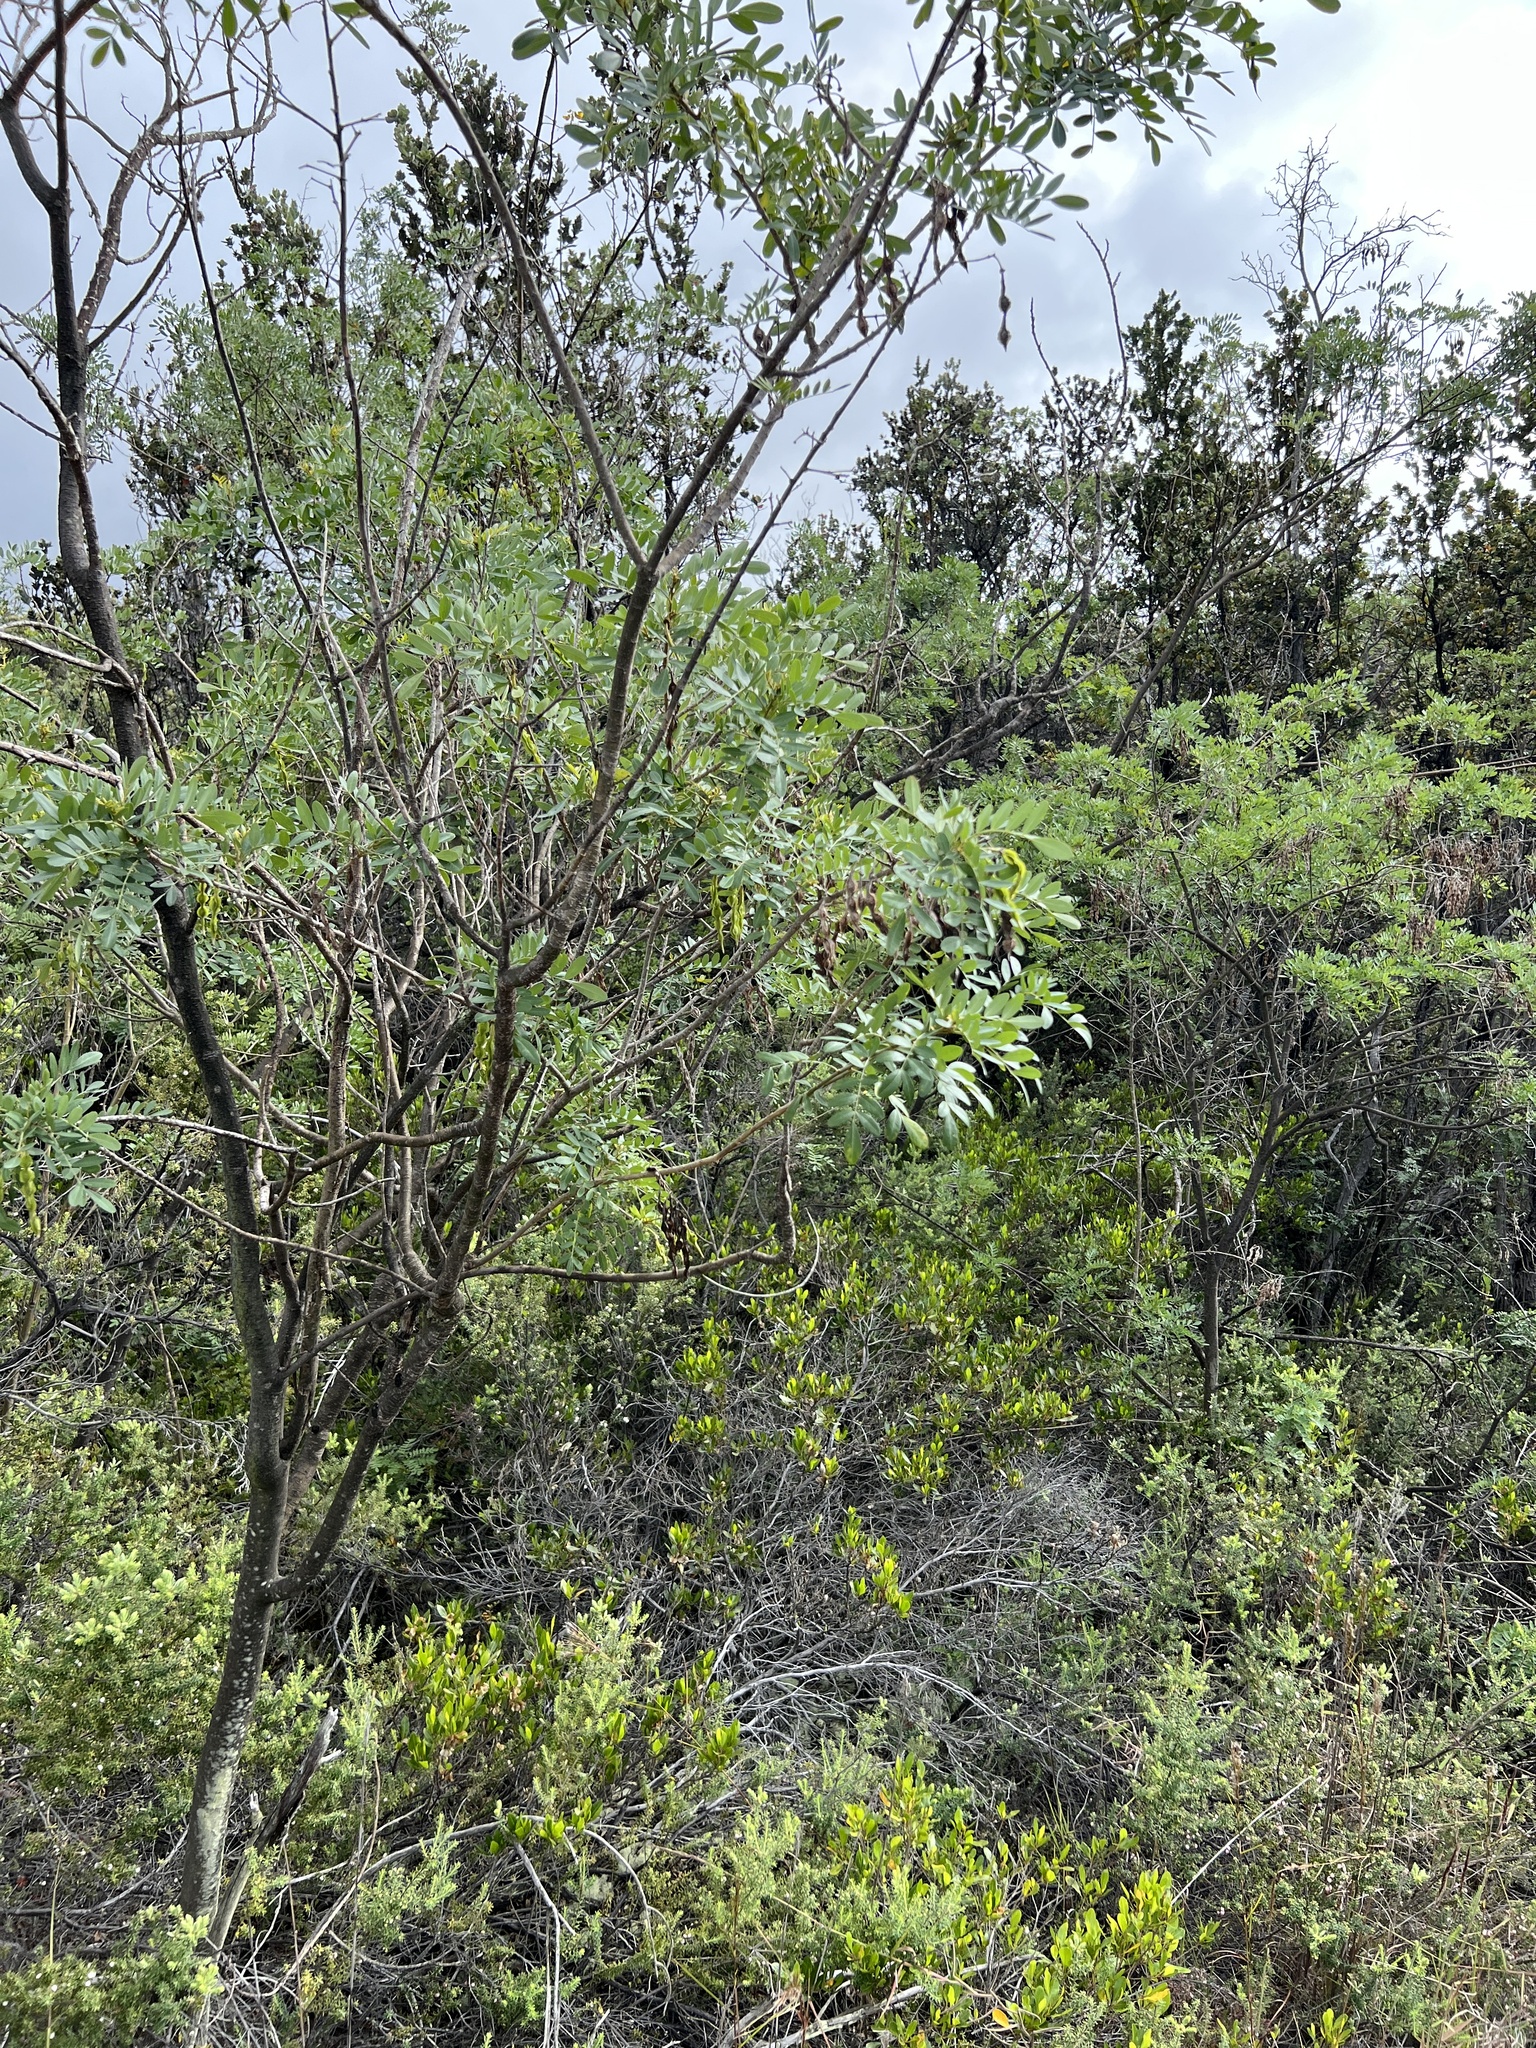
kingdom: Plantae
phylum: Tracheophyta
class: Magnoliopsida
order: Fabales
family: Fabaceae
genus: Sophora
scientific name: Sophora chrysophylla
